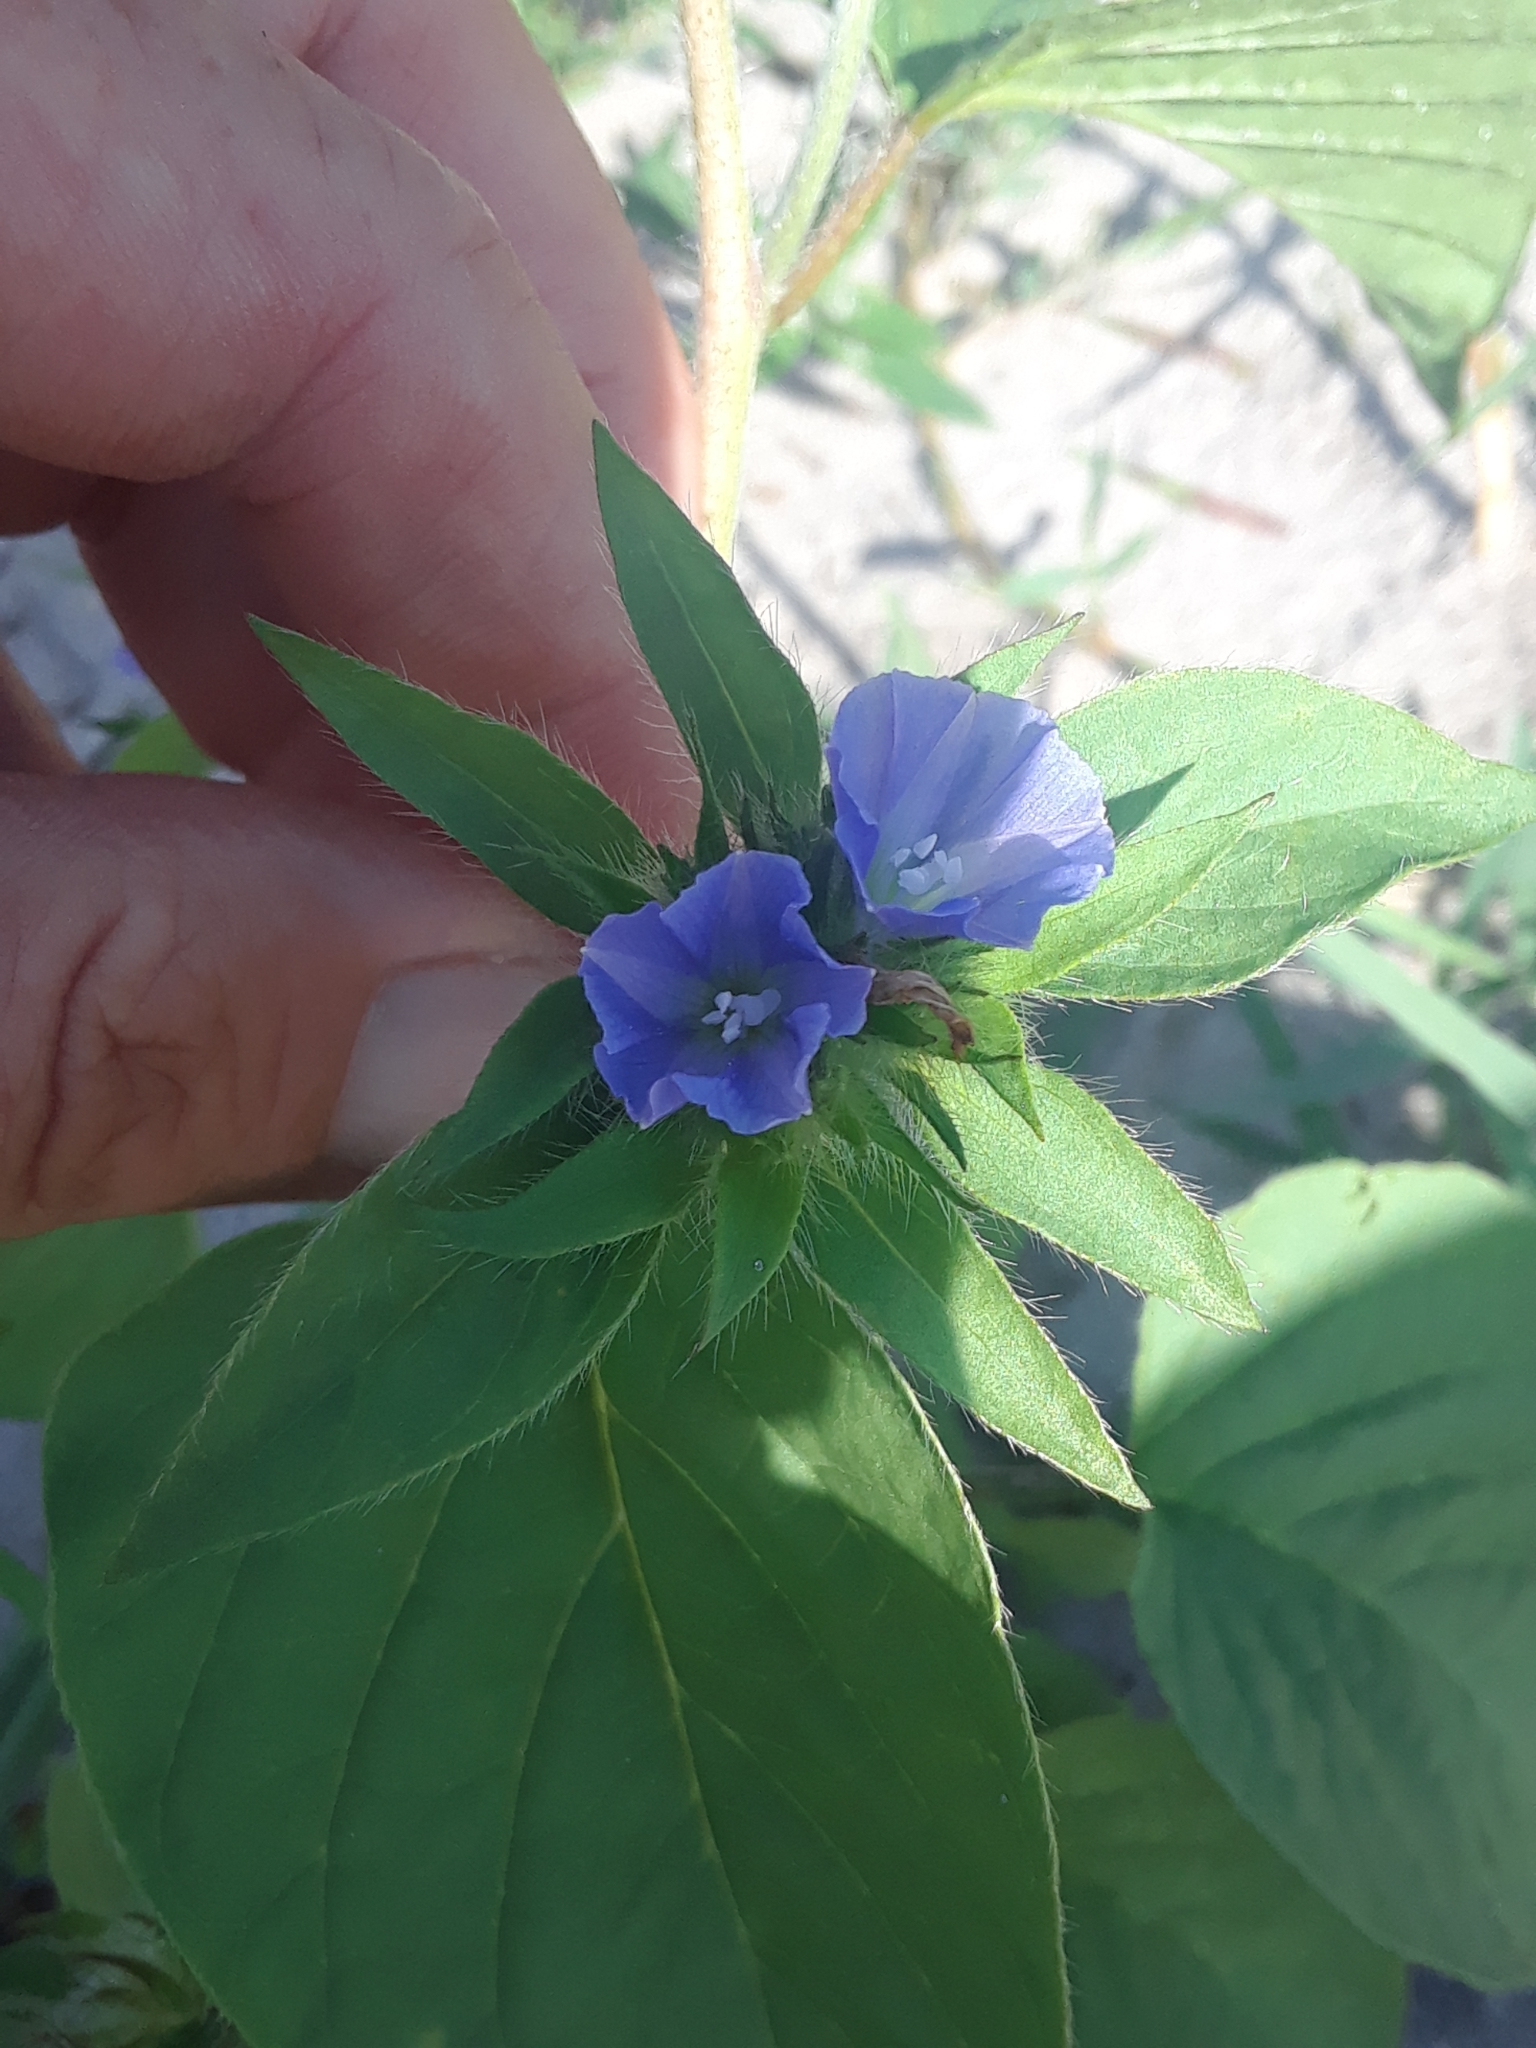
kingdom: Plantae
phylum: Tracheophyta
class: Magnoliopsida
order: Solanales
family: Convolvulaceae
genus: Jacquemontia
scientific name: Jacquemontia tamnifolia
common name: Hairy clustervine
